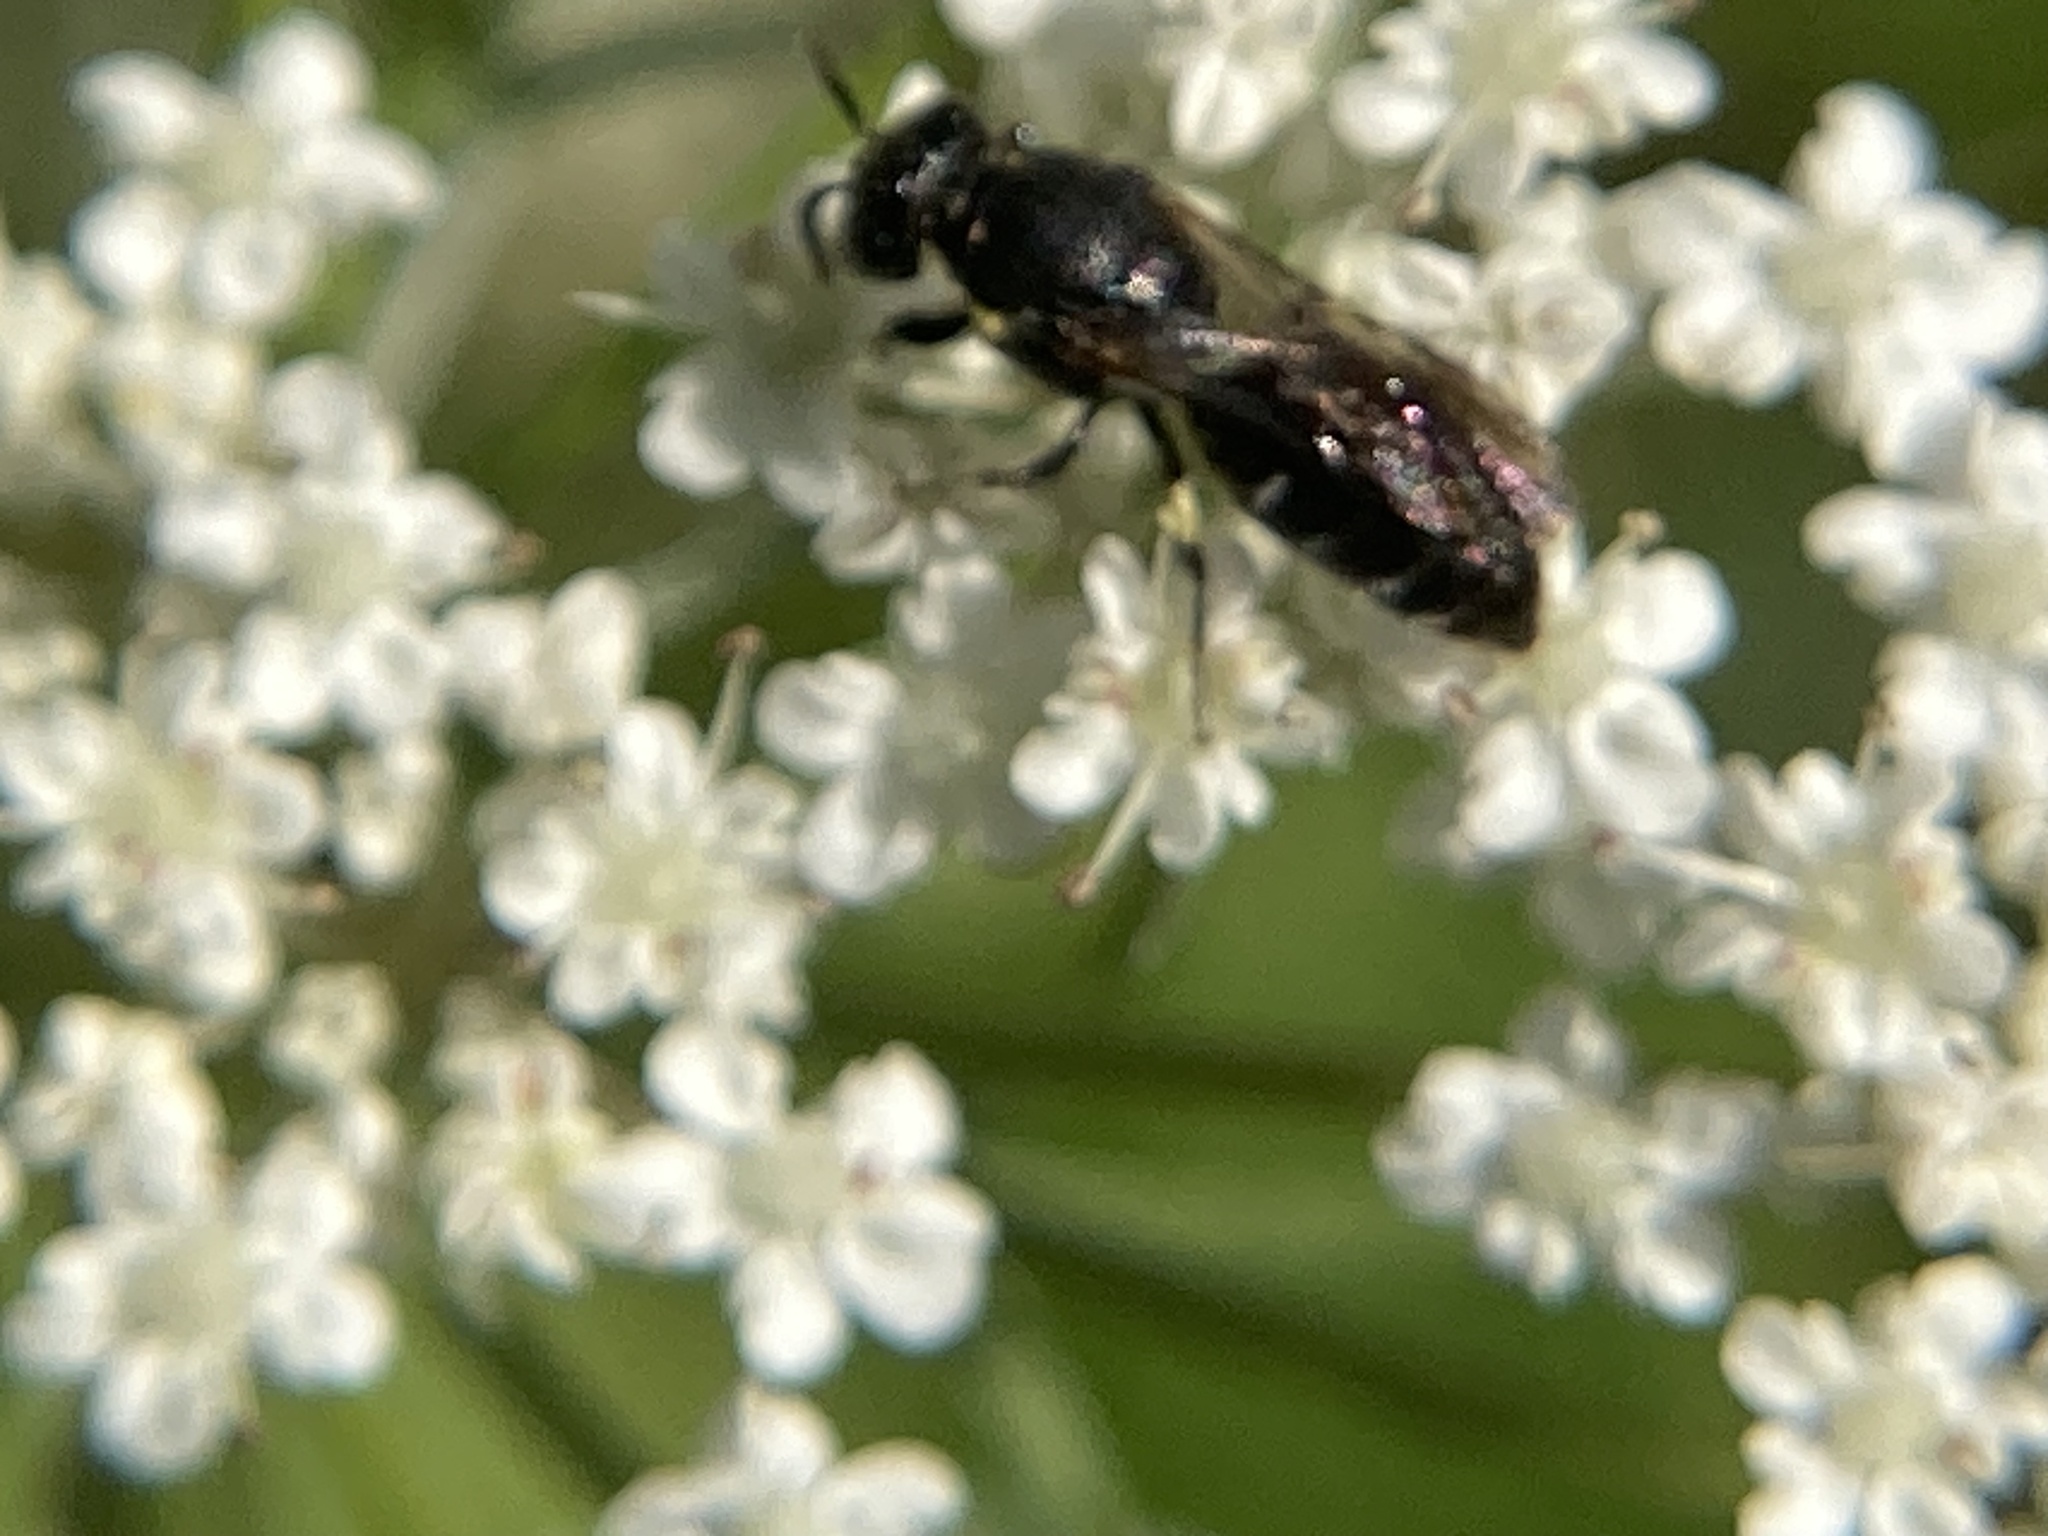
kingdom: Animalia
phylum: Arthropoda
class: Insecta
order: Hymenoptera
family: Colletidae
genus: Hylaeus
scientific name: Hylaeus
